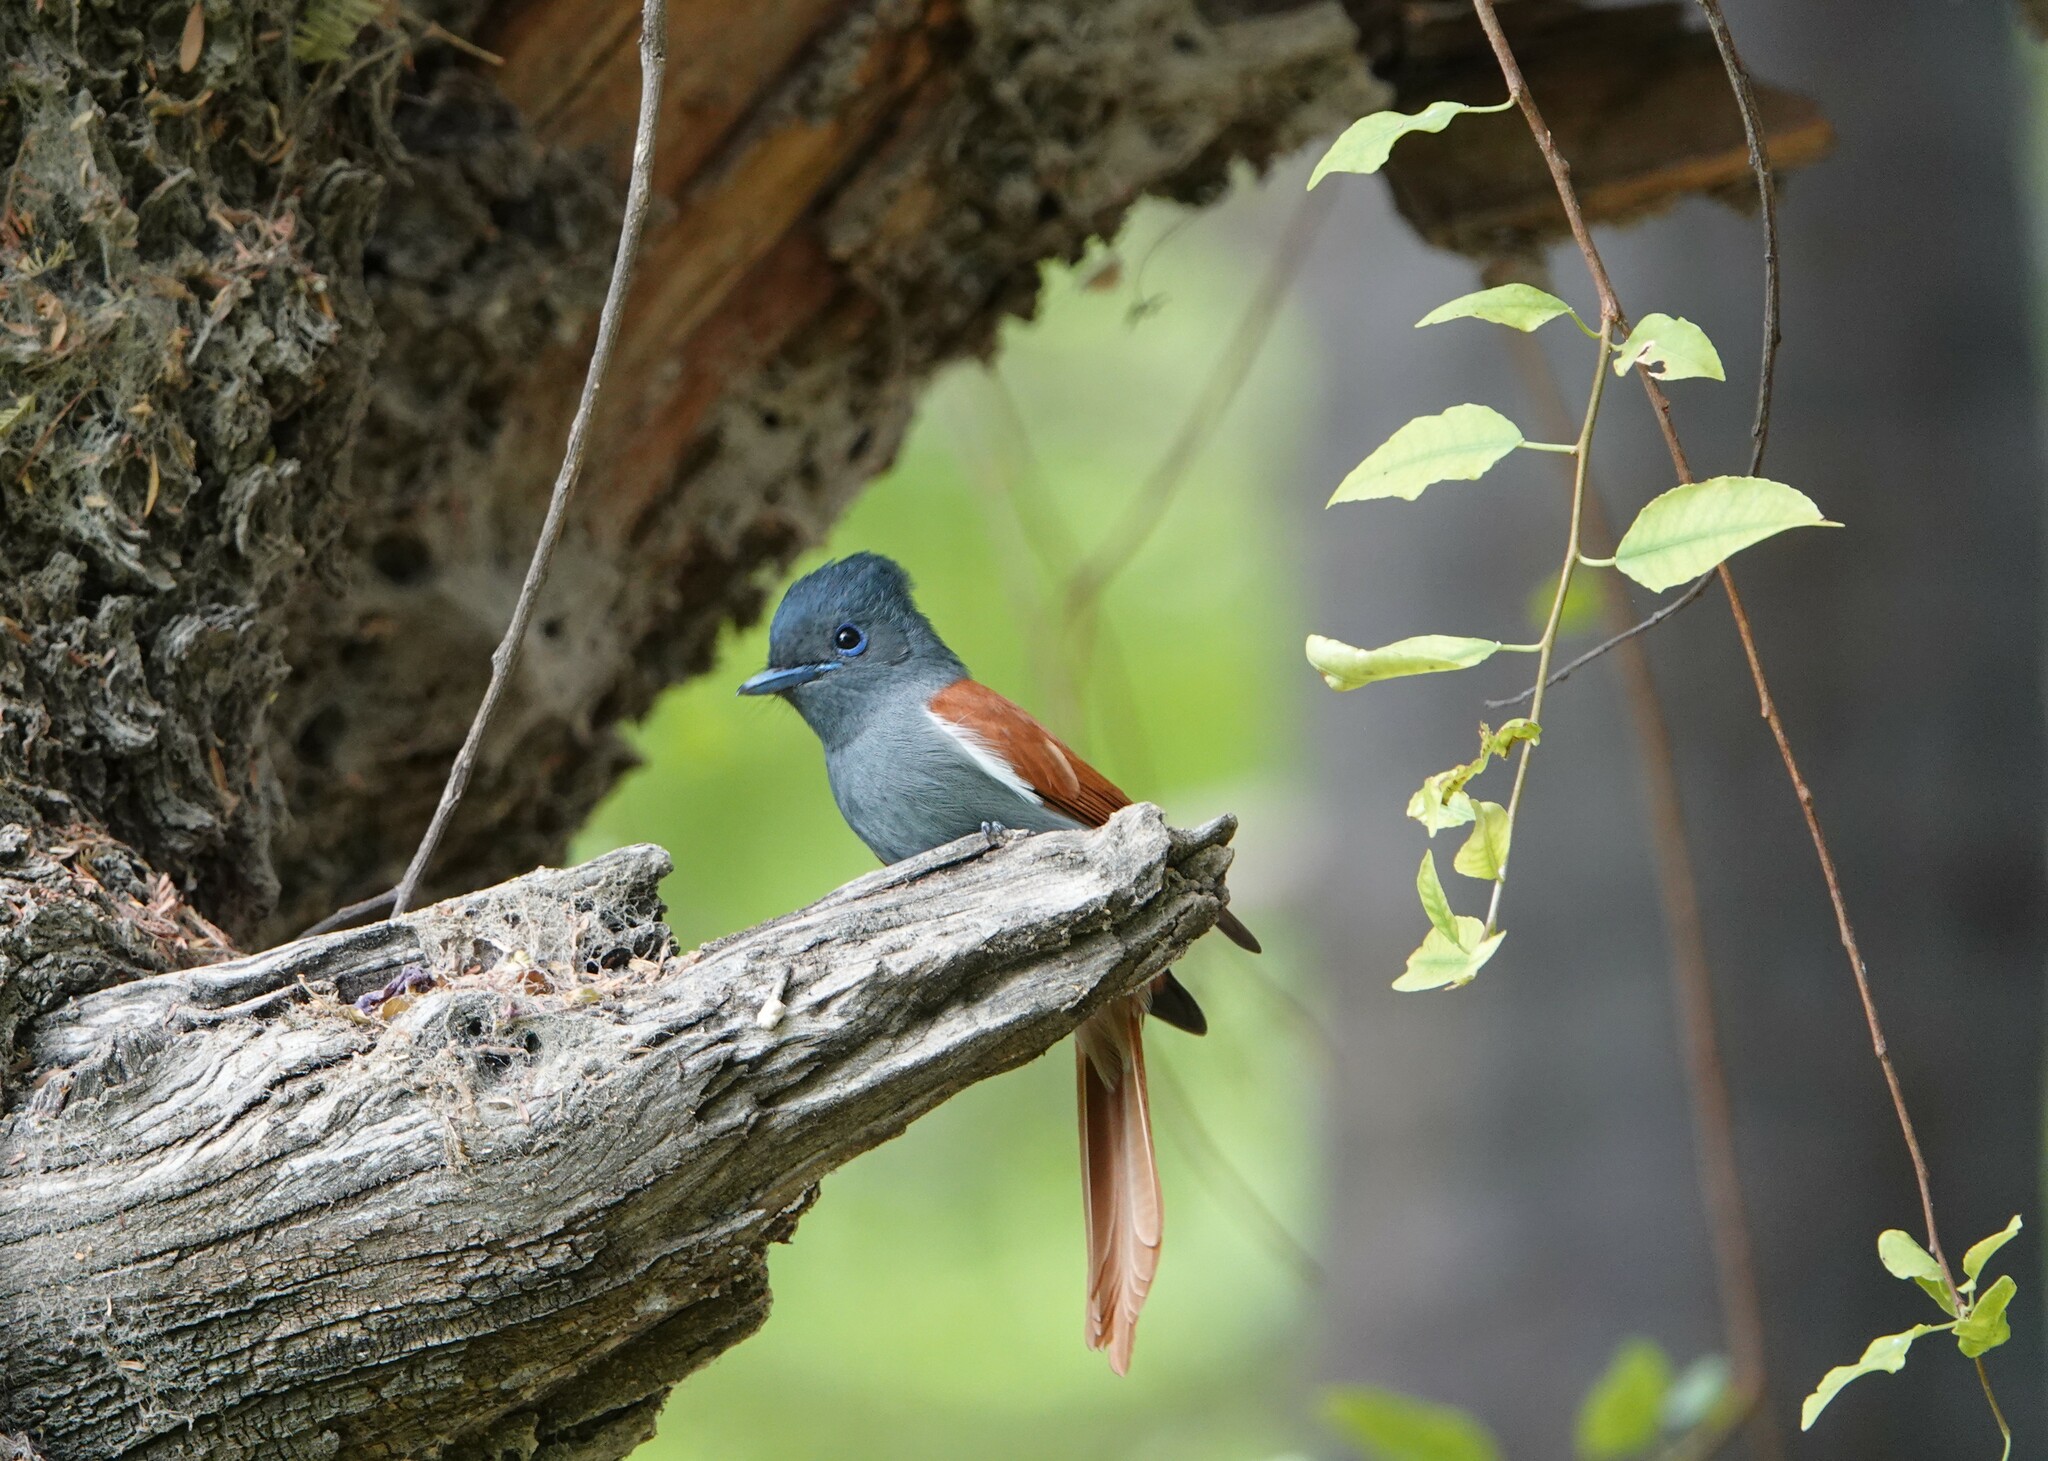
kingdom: Animalia
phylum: Chordata
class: Aves
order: Passeriformes
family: Monarchidae
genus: Terpsiphone
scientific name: Terpsiphone viridis
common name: African paradise flycatcher
